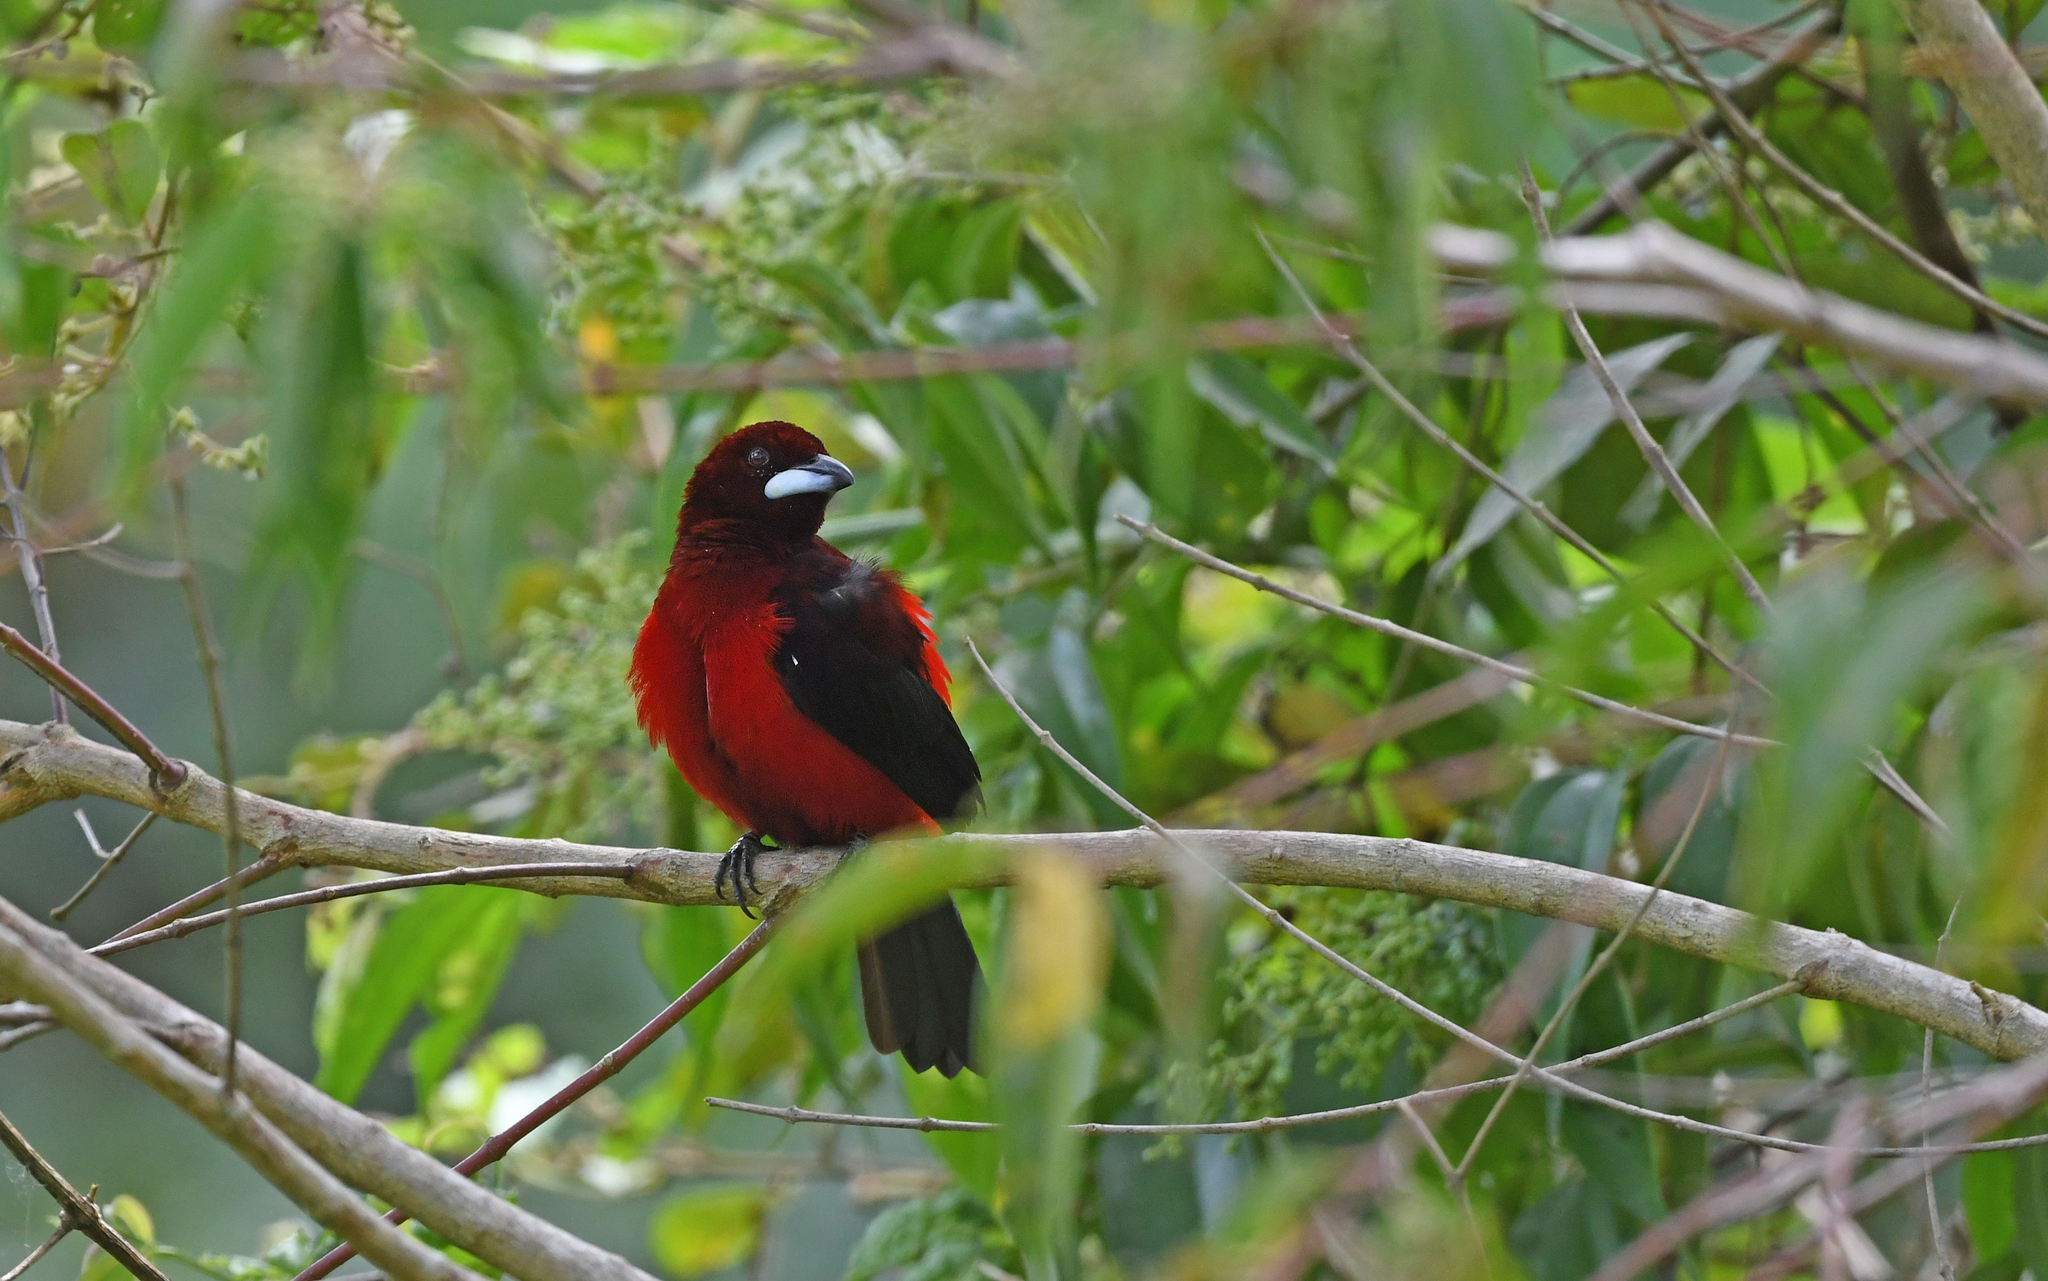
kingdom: Animalia
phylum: Chordata
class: Aves
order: Passeriformes
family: Thraupidae
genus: Ramphocelus
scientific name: Ramphocelus dimidiatus
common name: Crimson-backed tanager
